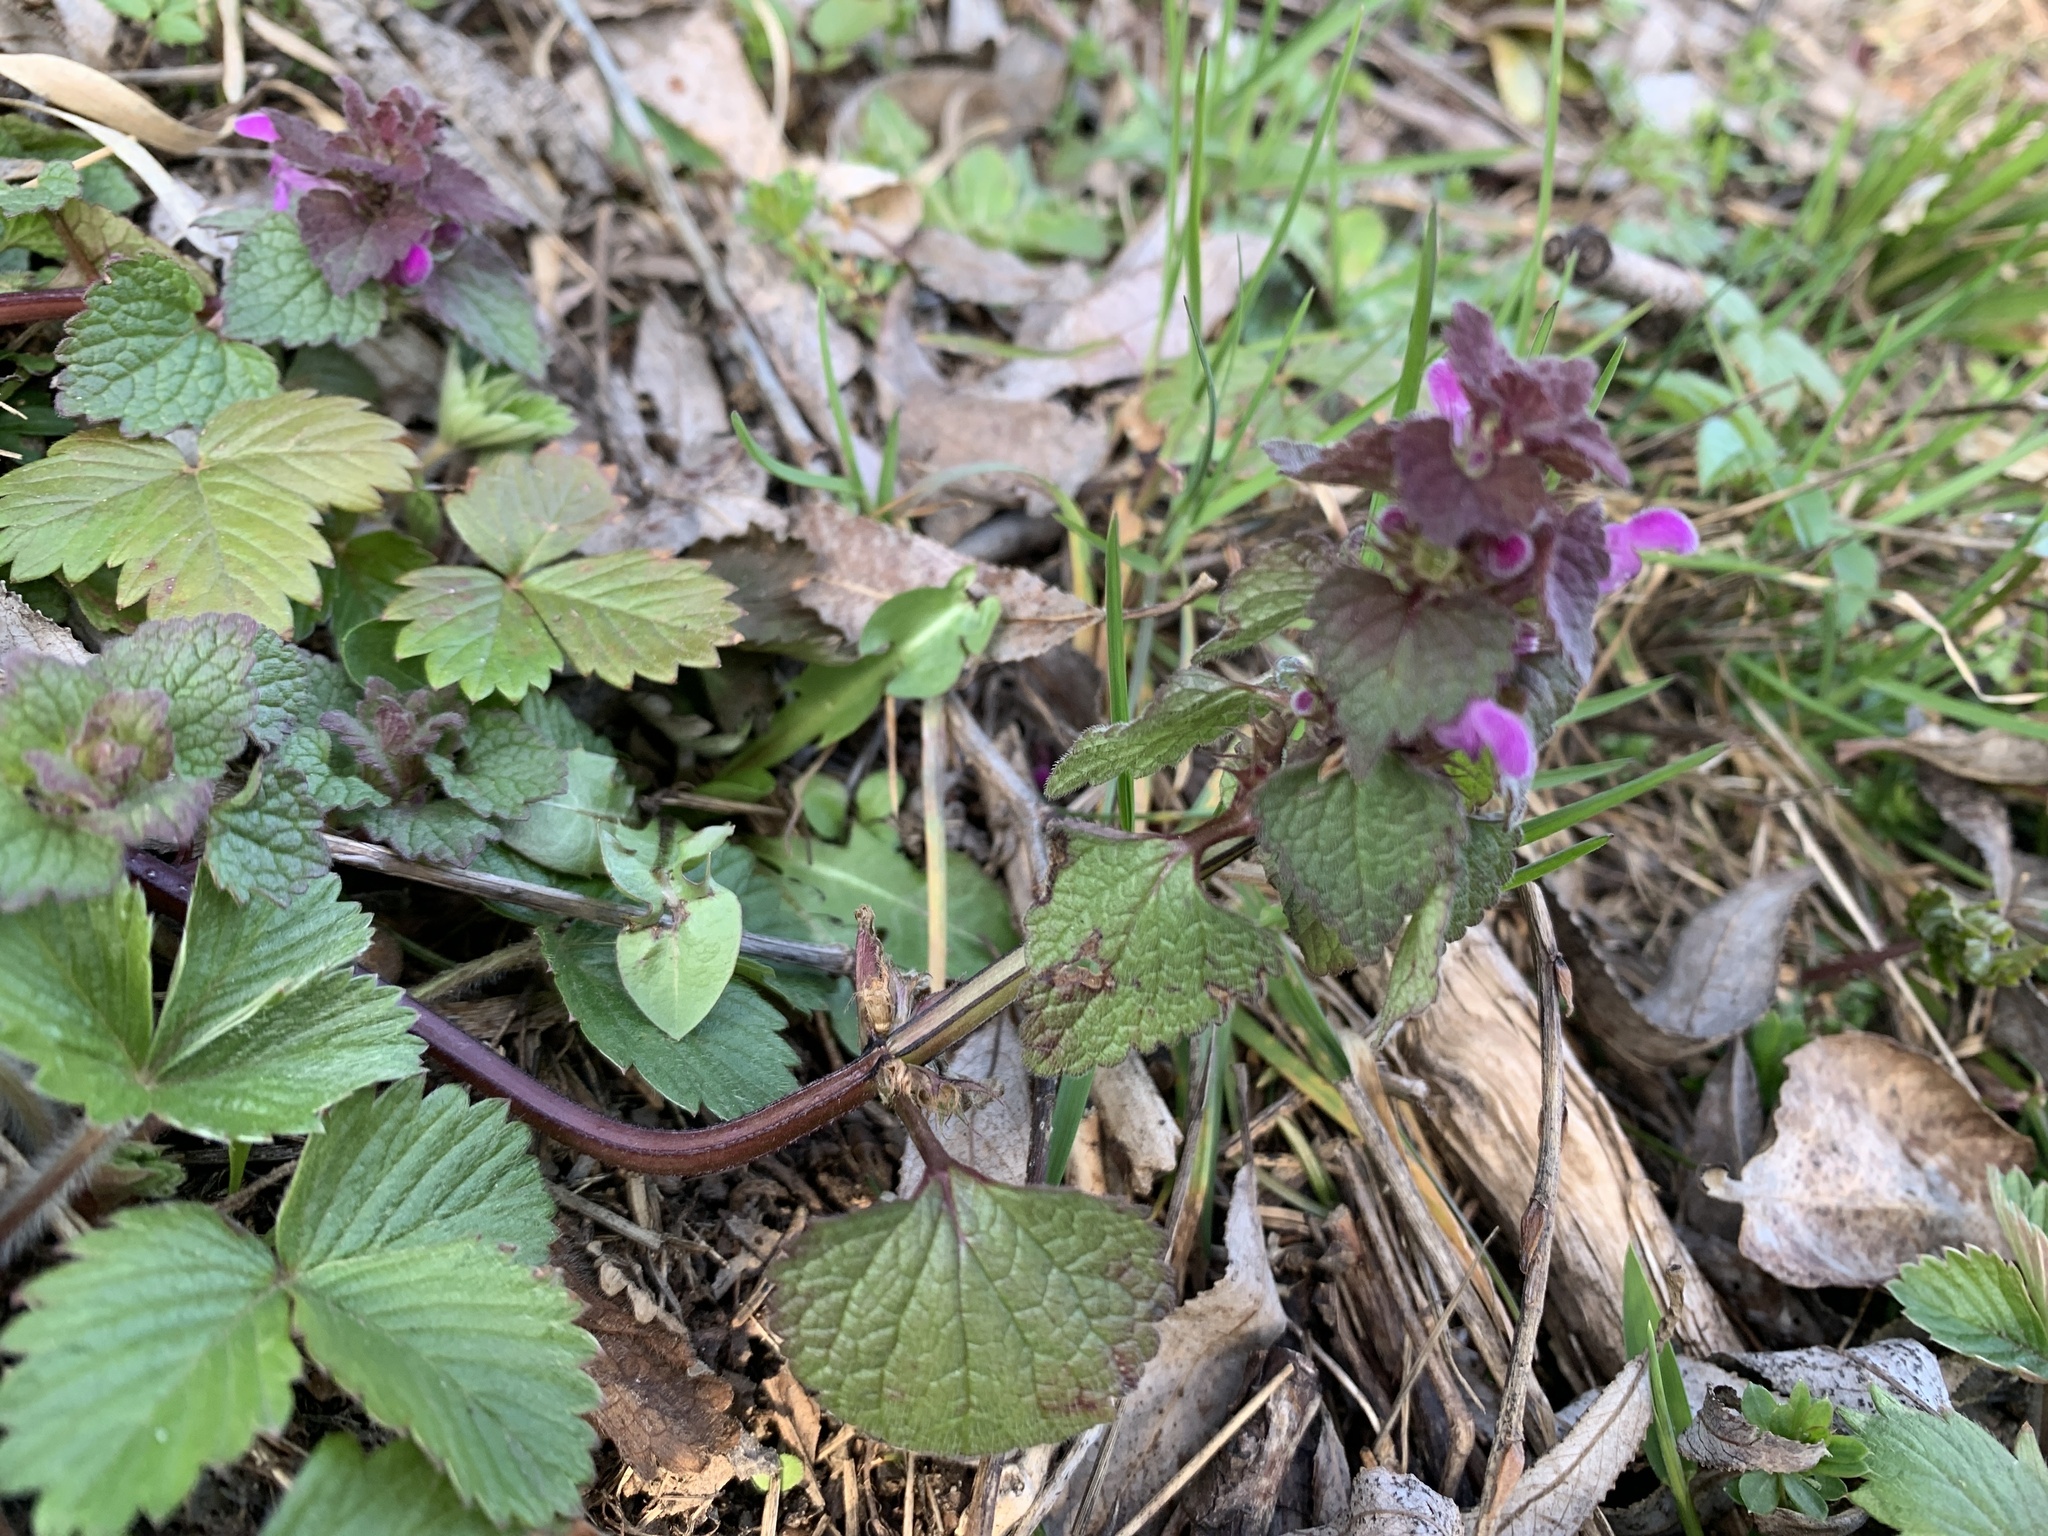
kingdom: Plantae
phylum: Tracheophyta
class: Magnoliopsida
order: Lamiales
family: Lamiaceae
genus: Lamium
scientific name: Lamium purpureum
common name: Red dead-nettle
